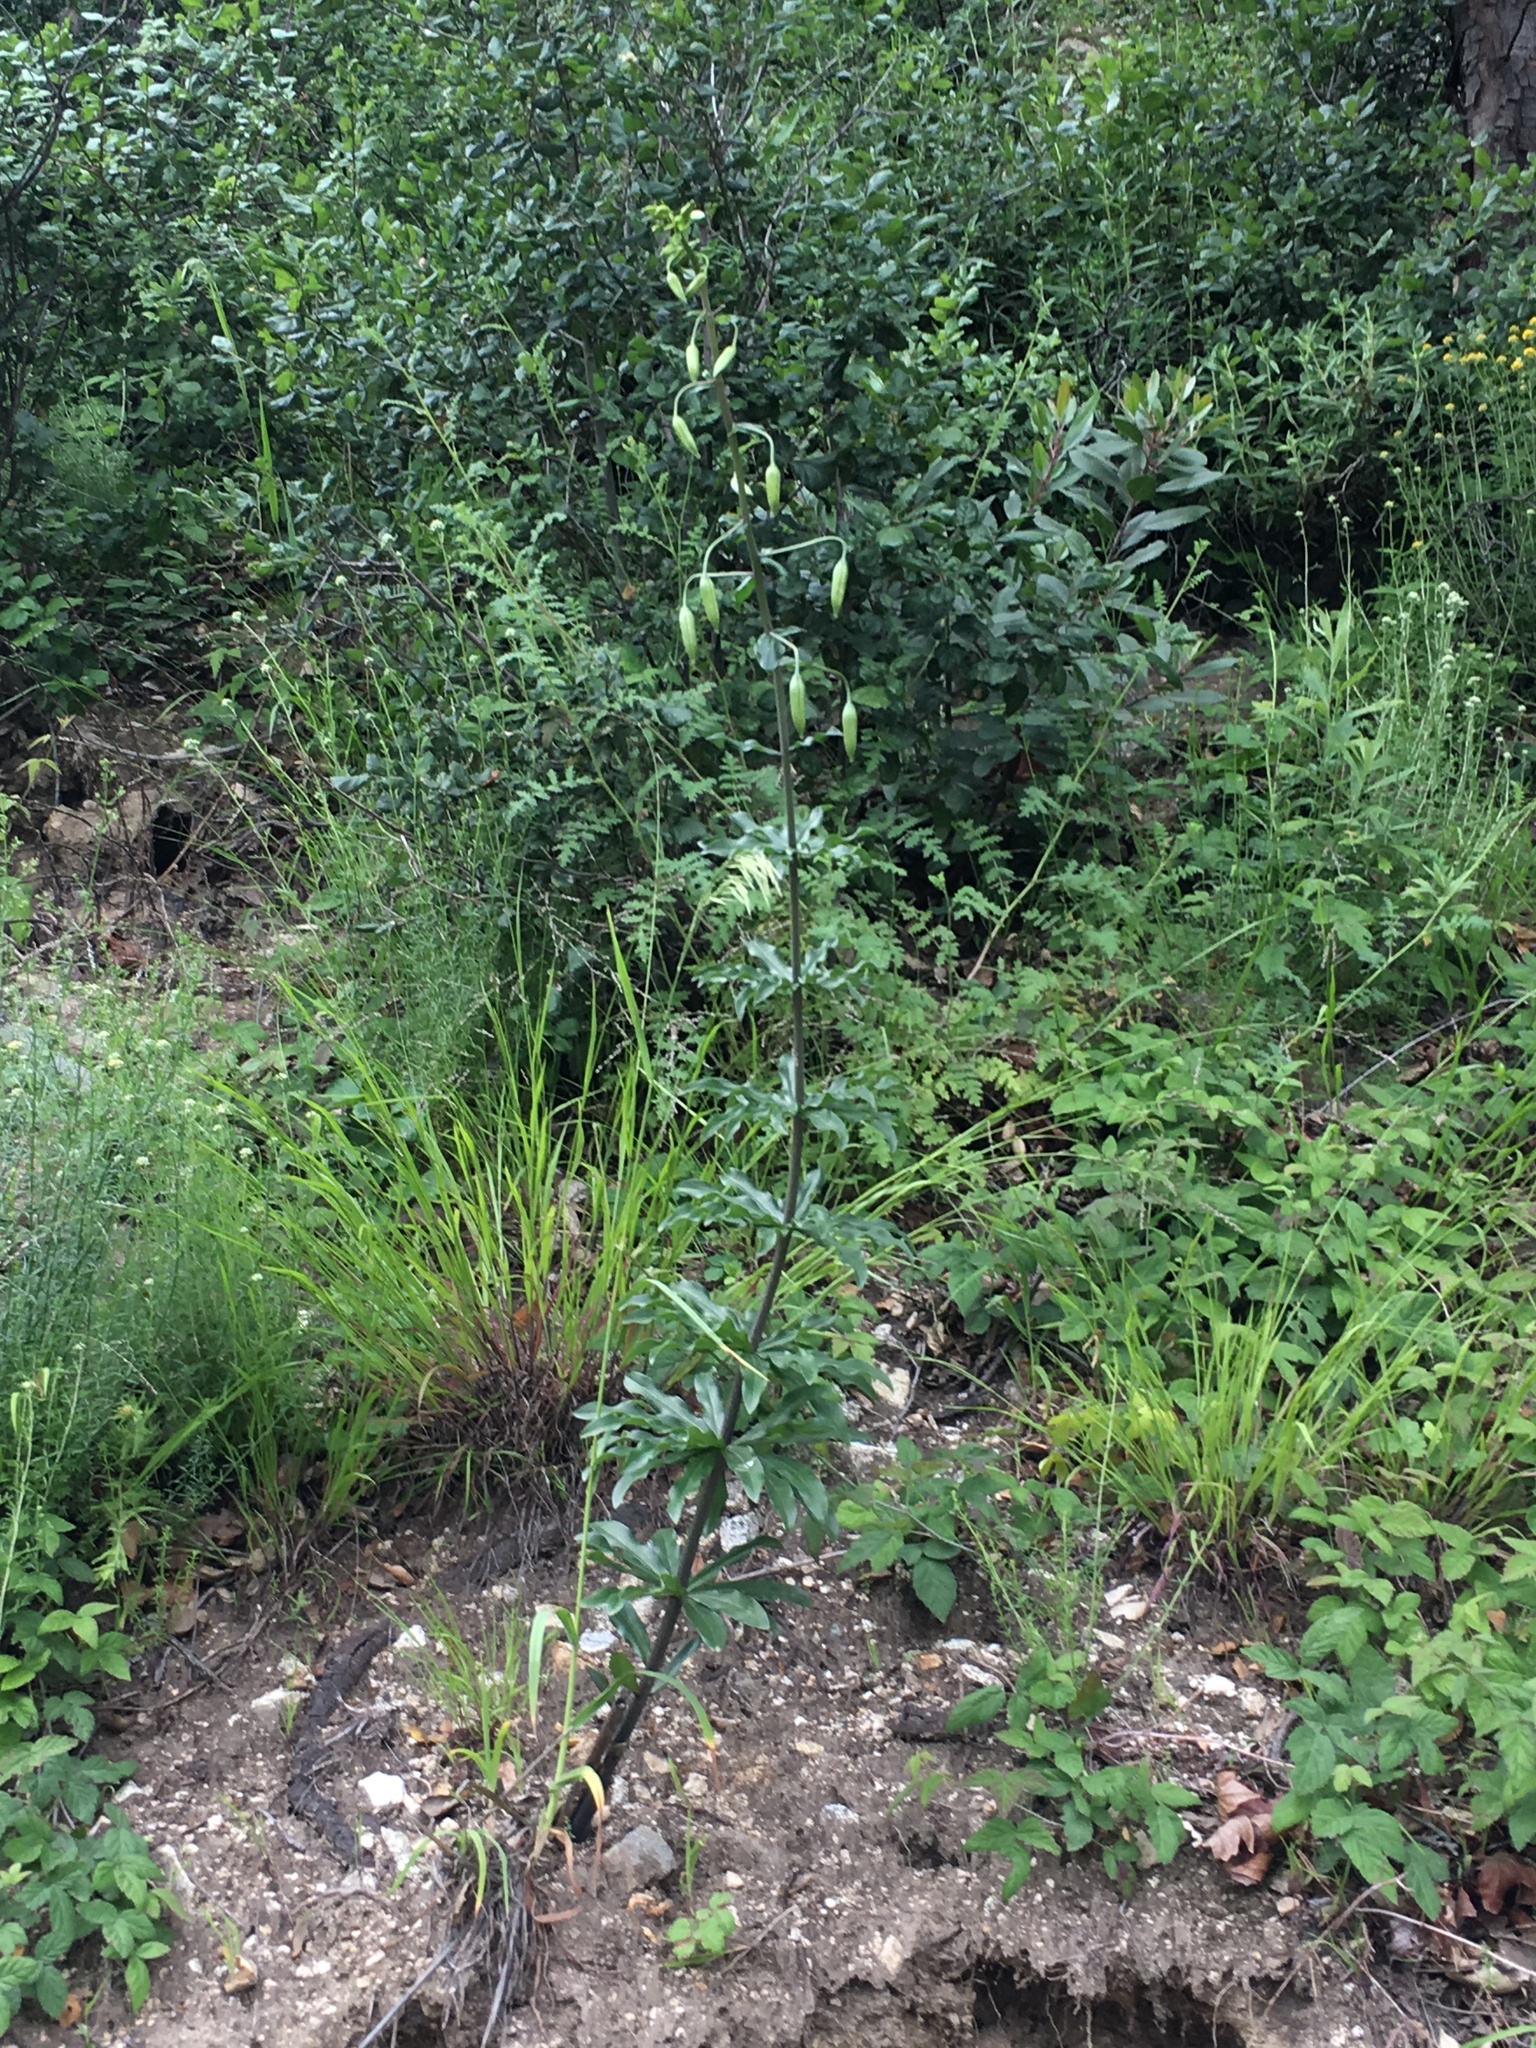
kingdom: Plantae
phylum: Tracheophyta
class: Liliopsida
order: Liliales
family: Liliaceae
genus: Lilium
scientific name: Lilium humboldtii
